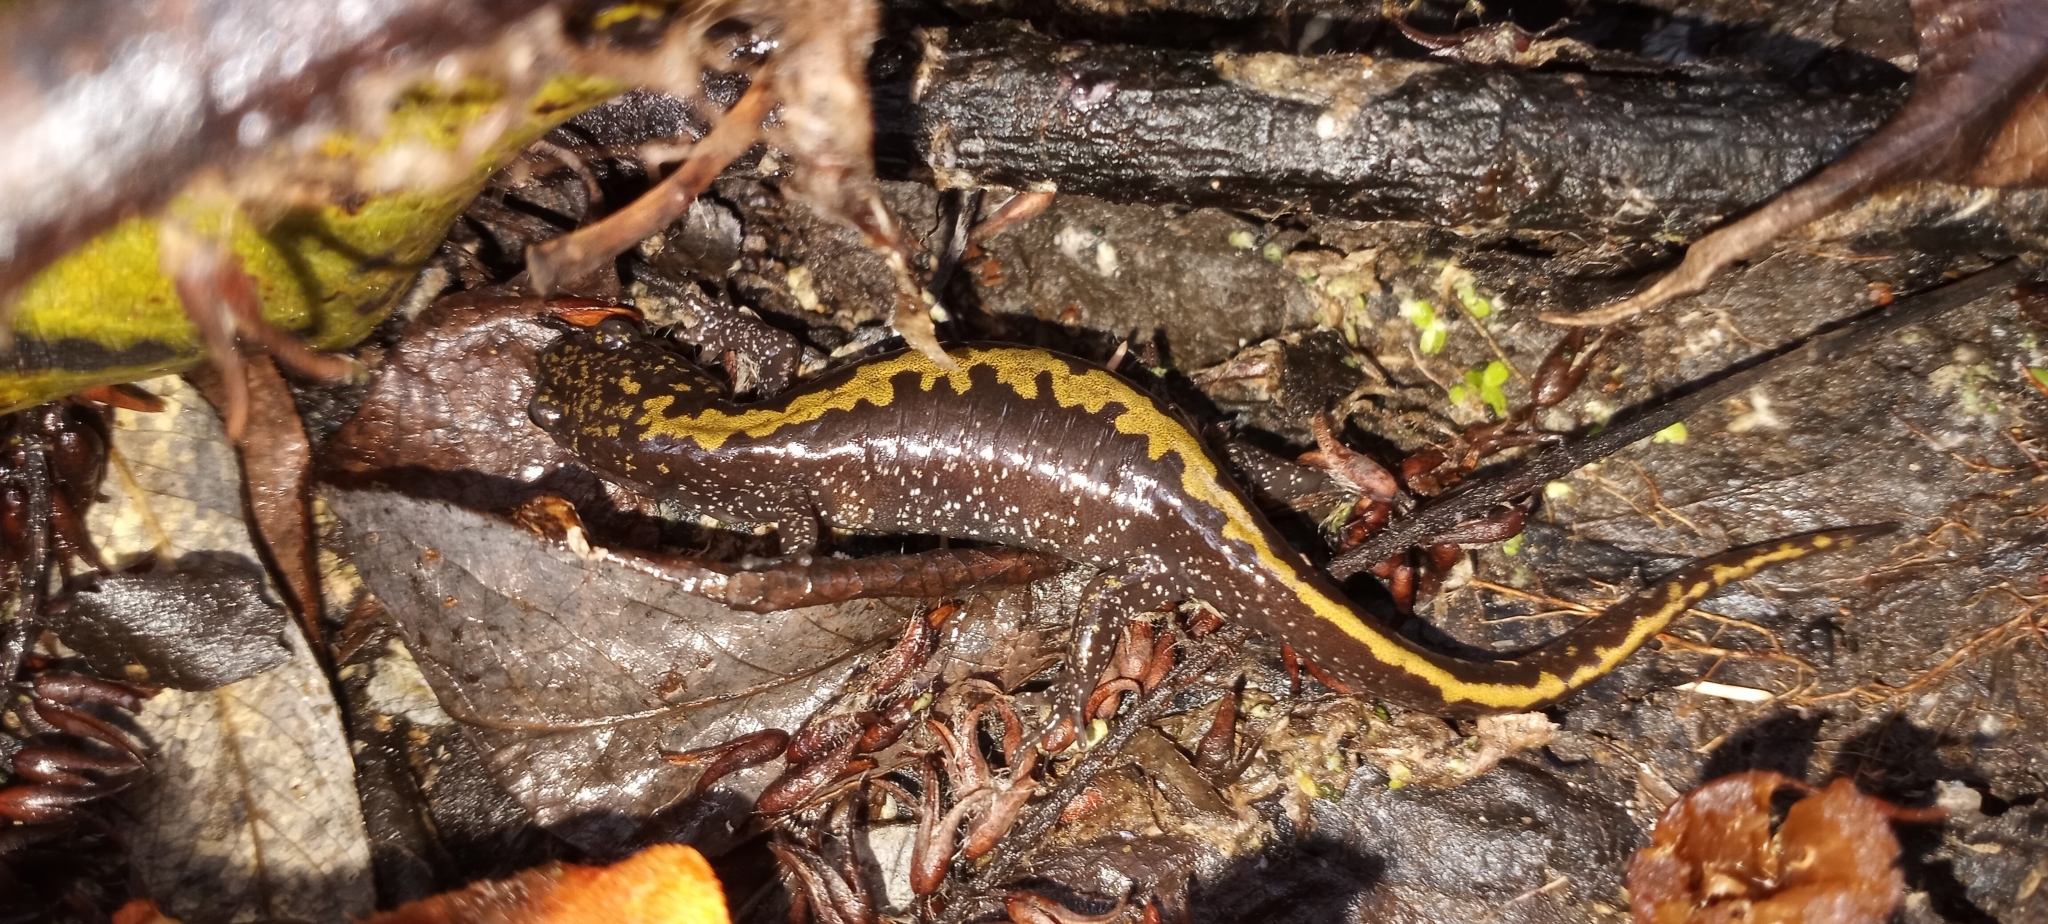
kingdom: Animalia
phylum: Chordata
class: Amphibia
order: Caudata
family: Ambystomatidae
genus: Ambystoma
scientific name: Ambystoma macrodactylum
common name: Long-toed salamander
